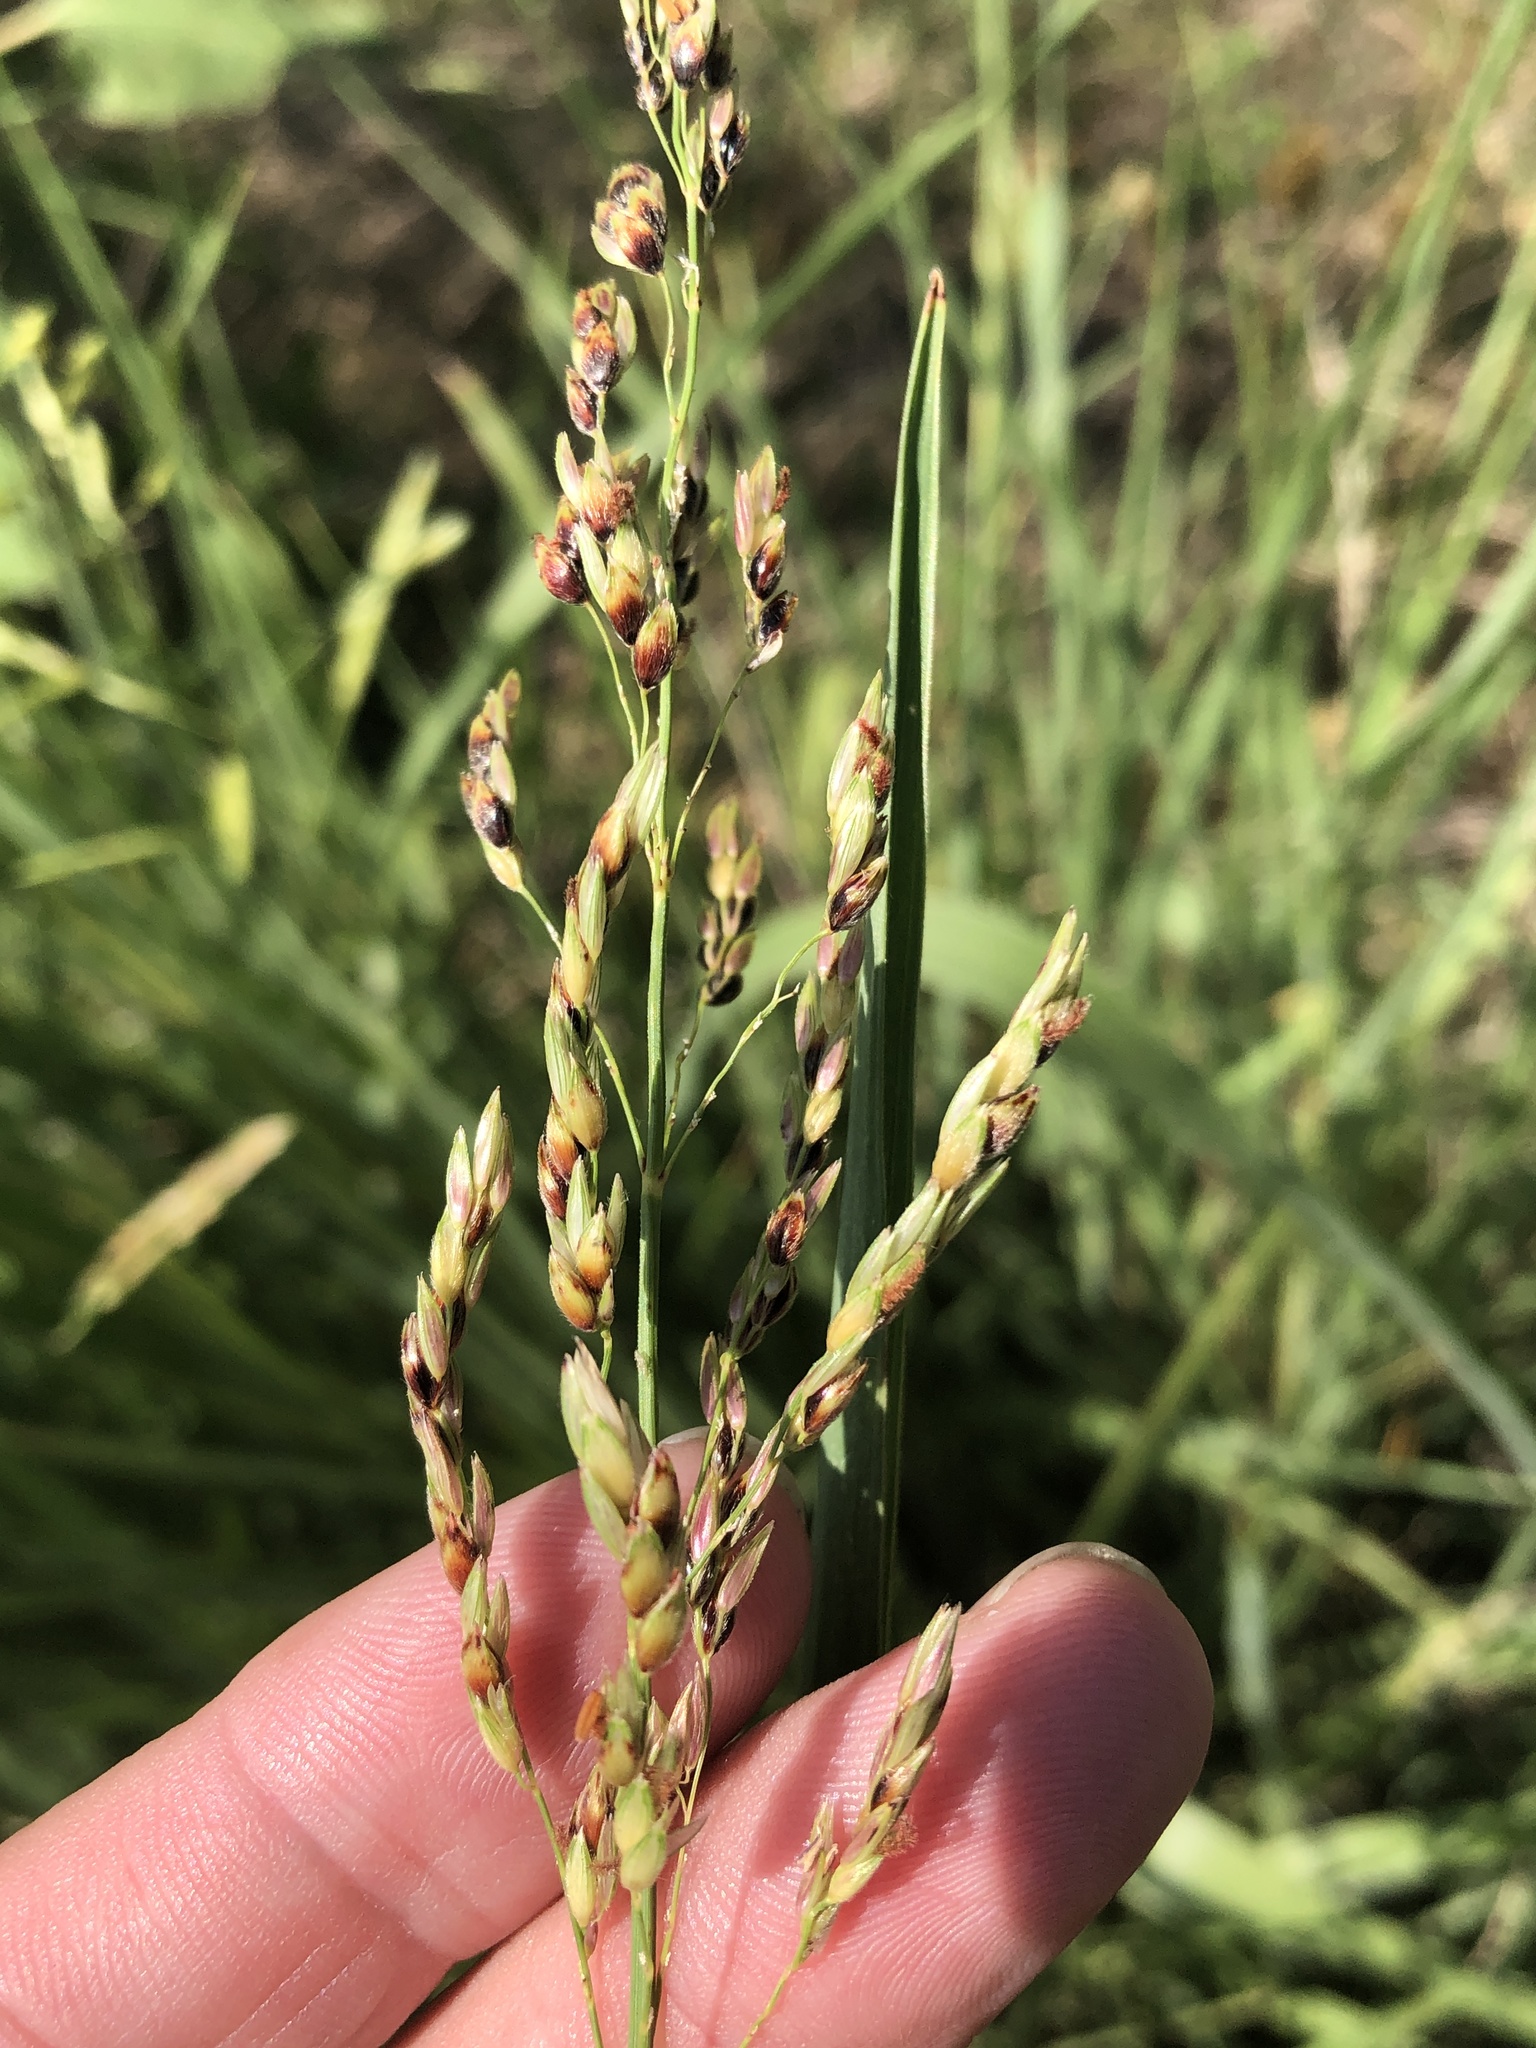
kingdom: Plantae
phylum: Tracheophyta
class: Liliopsida
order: Poales
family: Poaceae
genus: Sorghum
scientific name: Sorghum halepense
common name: Johnson-grass
